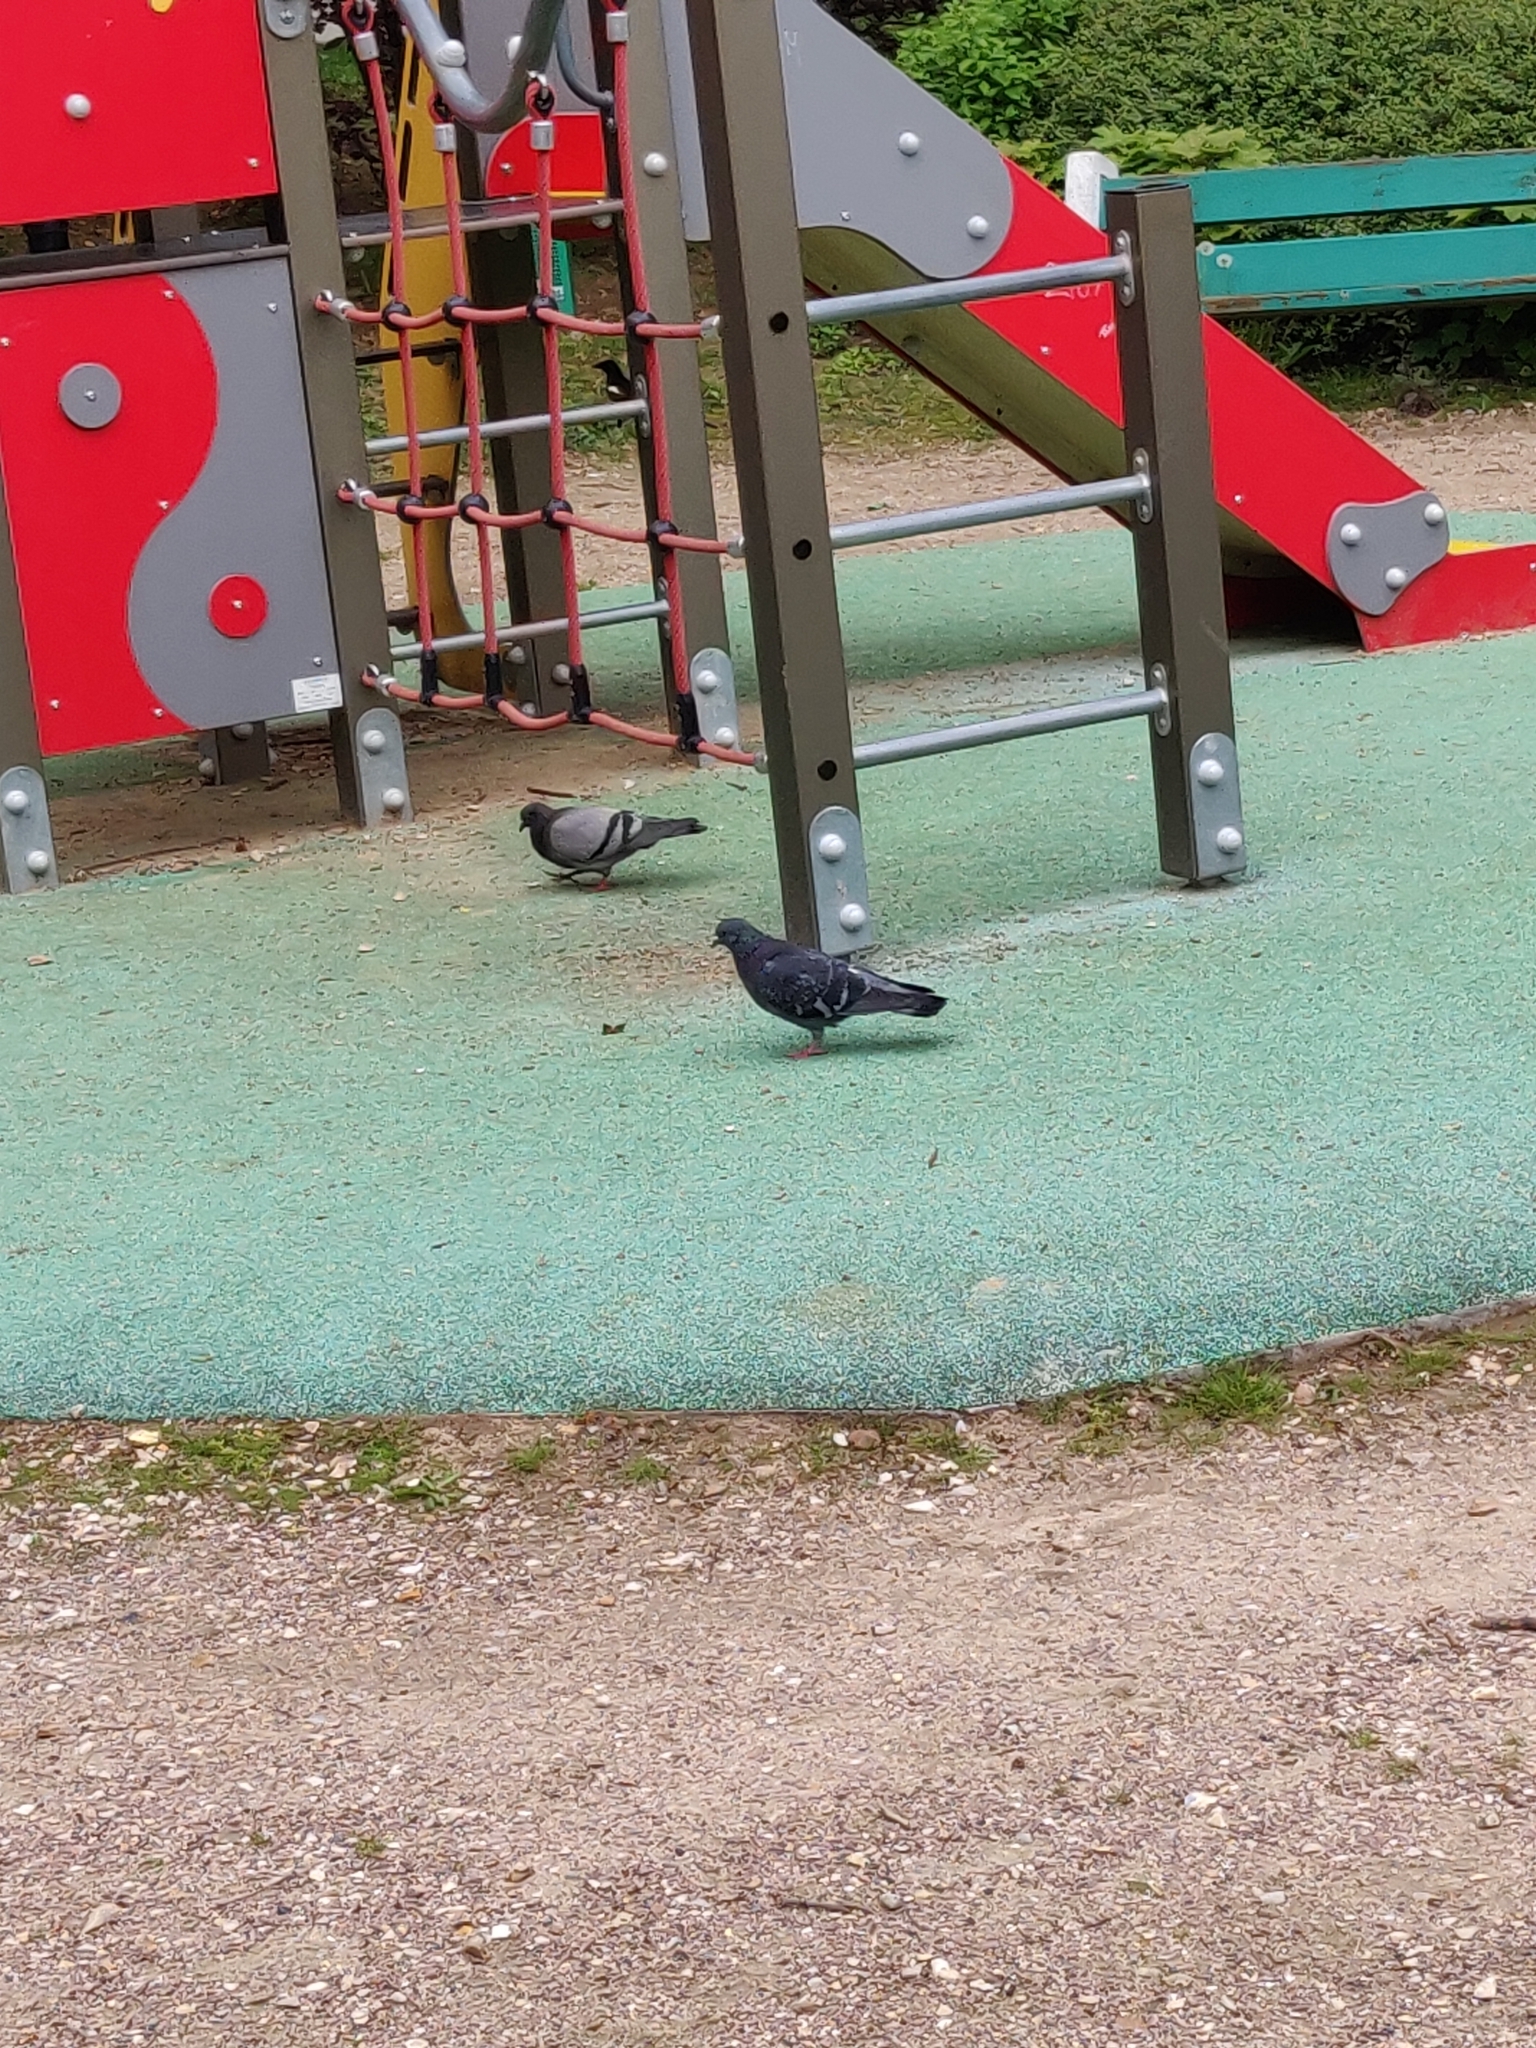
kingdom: Animalia
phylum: Chordata
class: Aves
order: Columbiformes
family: Columbidae
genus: Columba
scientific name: Columba livia
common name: Rock pigeon
